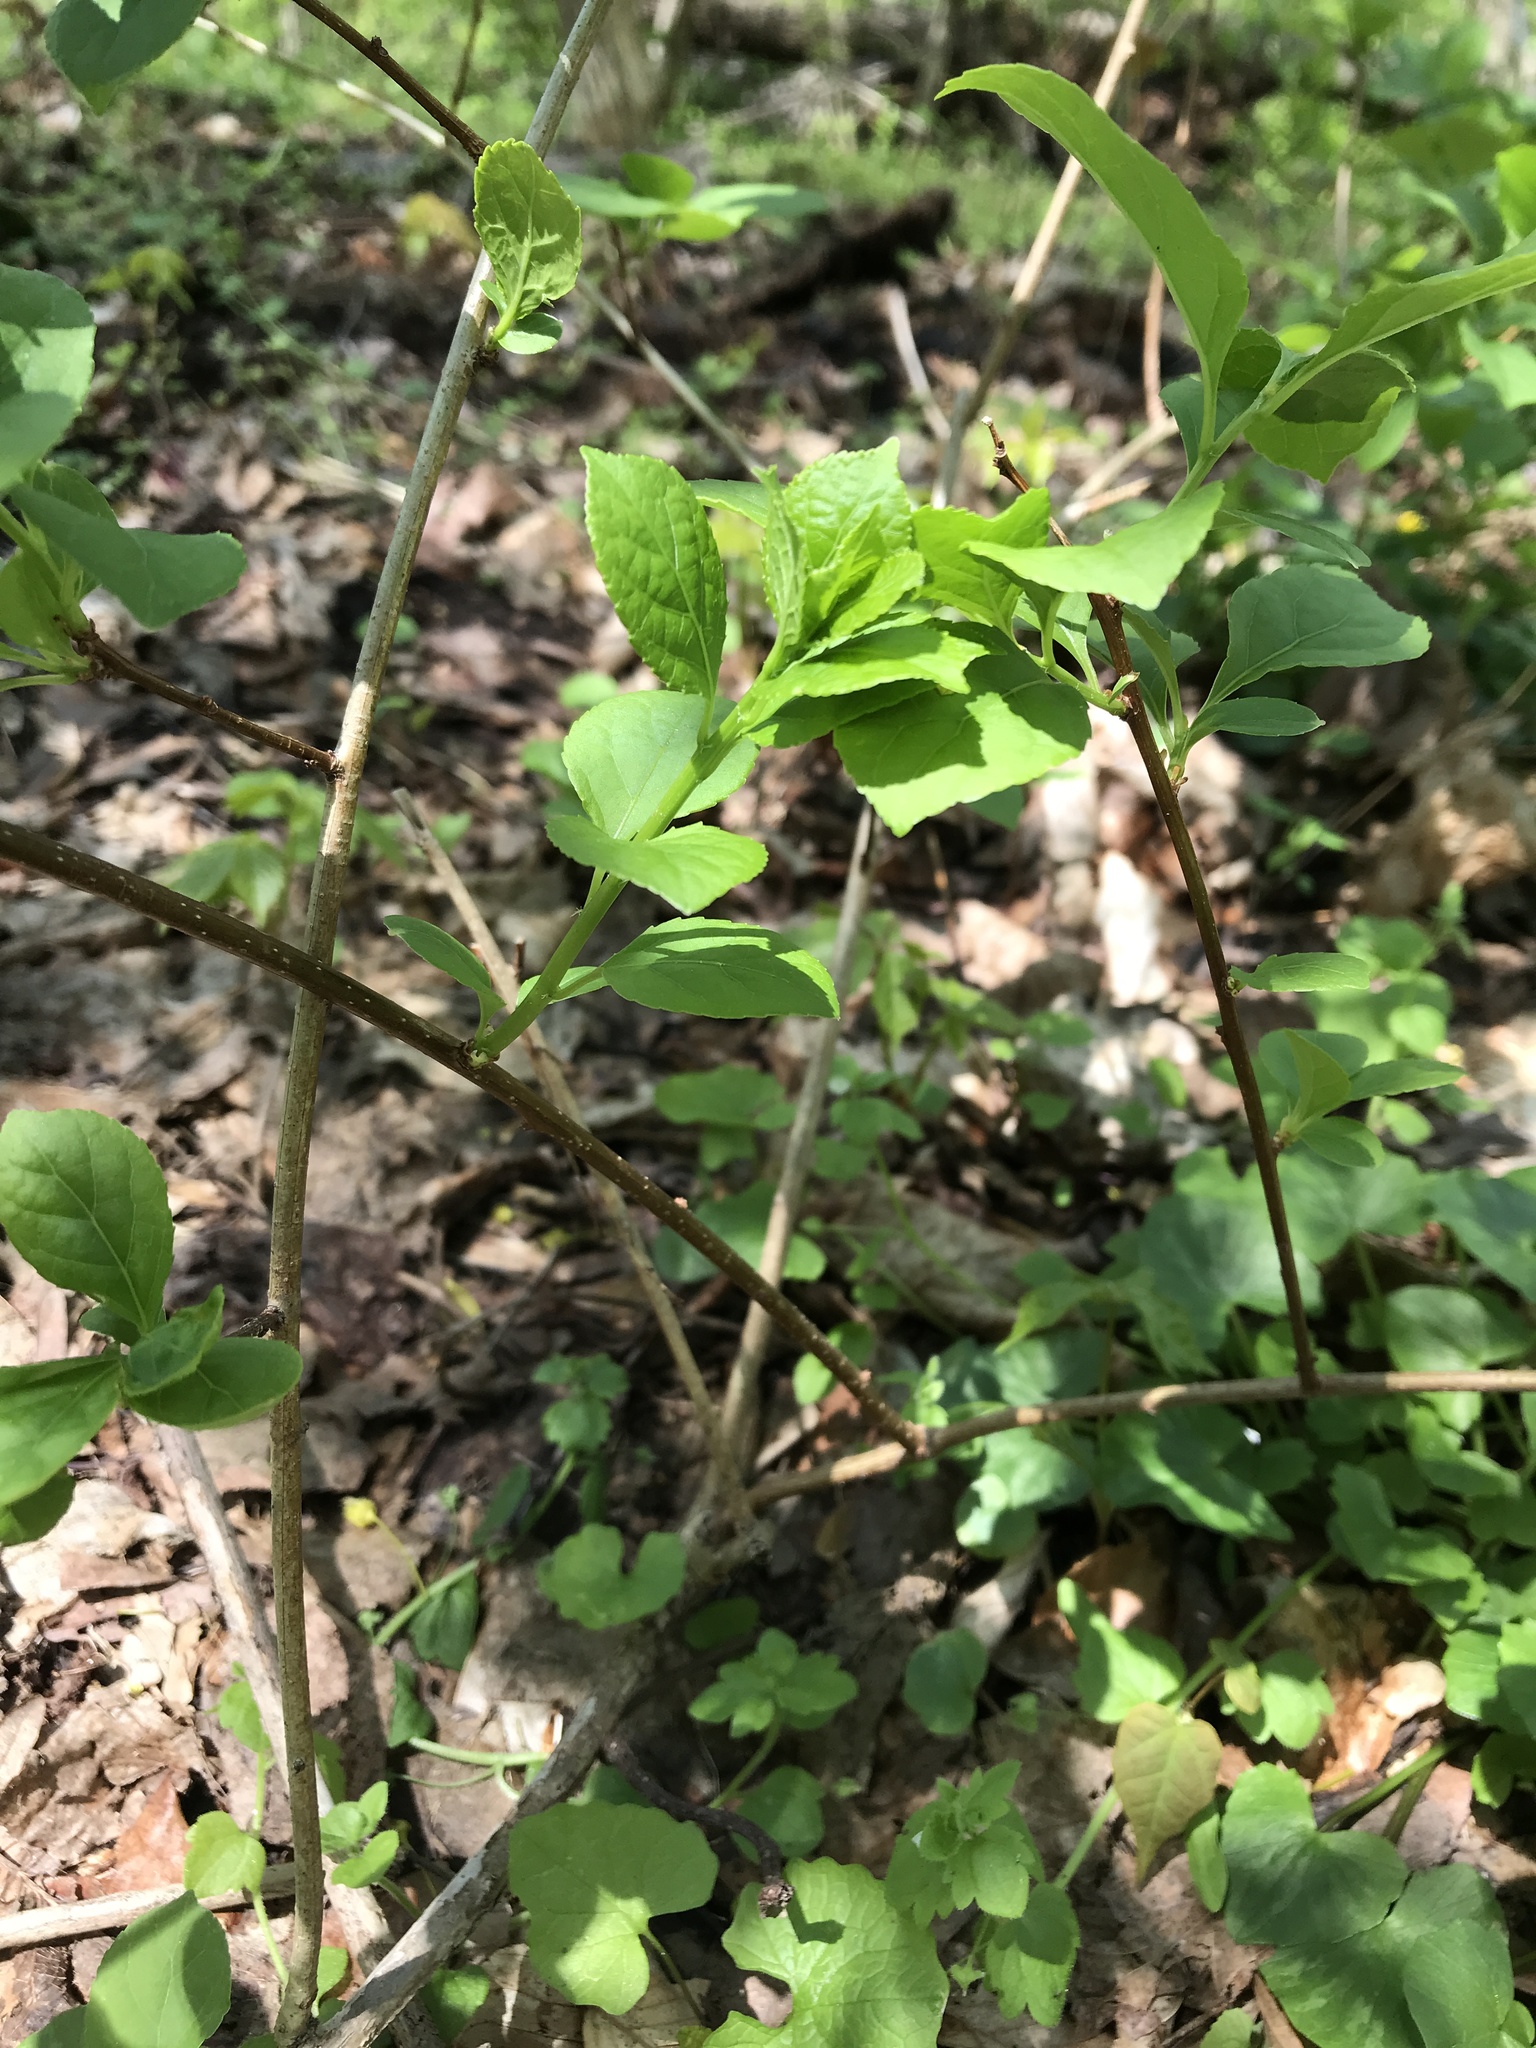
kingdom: Plantae
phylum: Tracheophyta
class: Magnoliopsida
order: Celastrales
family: Celastraceae
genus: Celastrus
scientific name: Celastrus orbiculatus
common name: Oriental bittersweet
